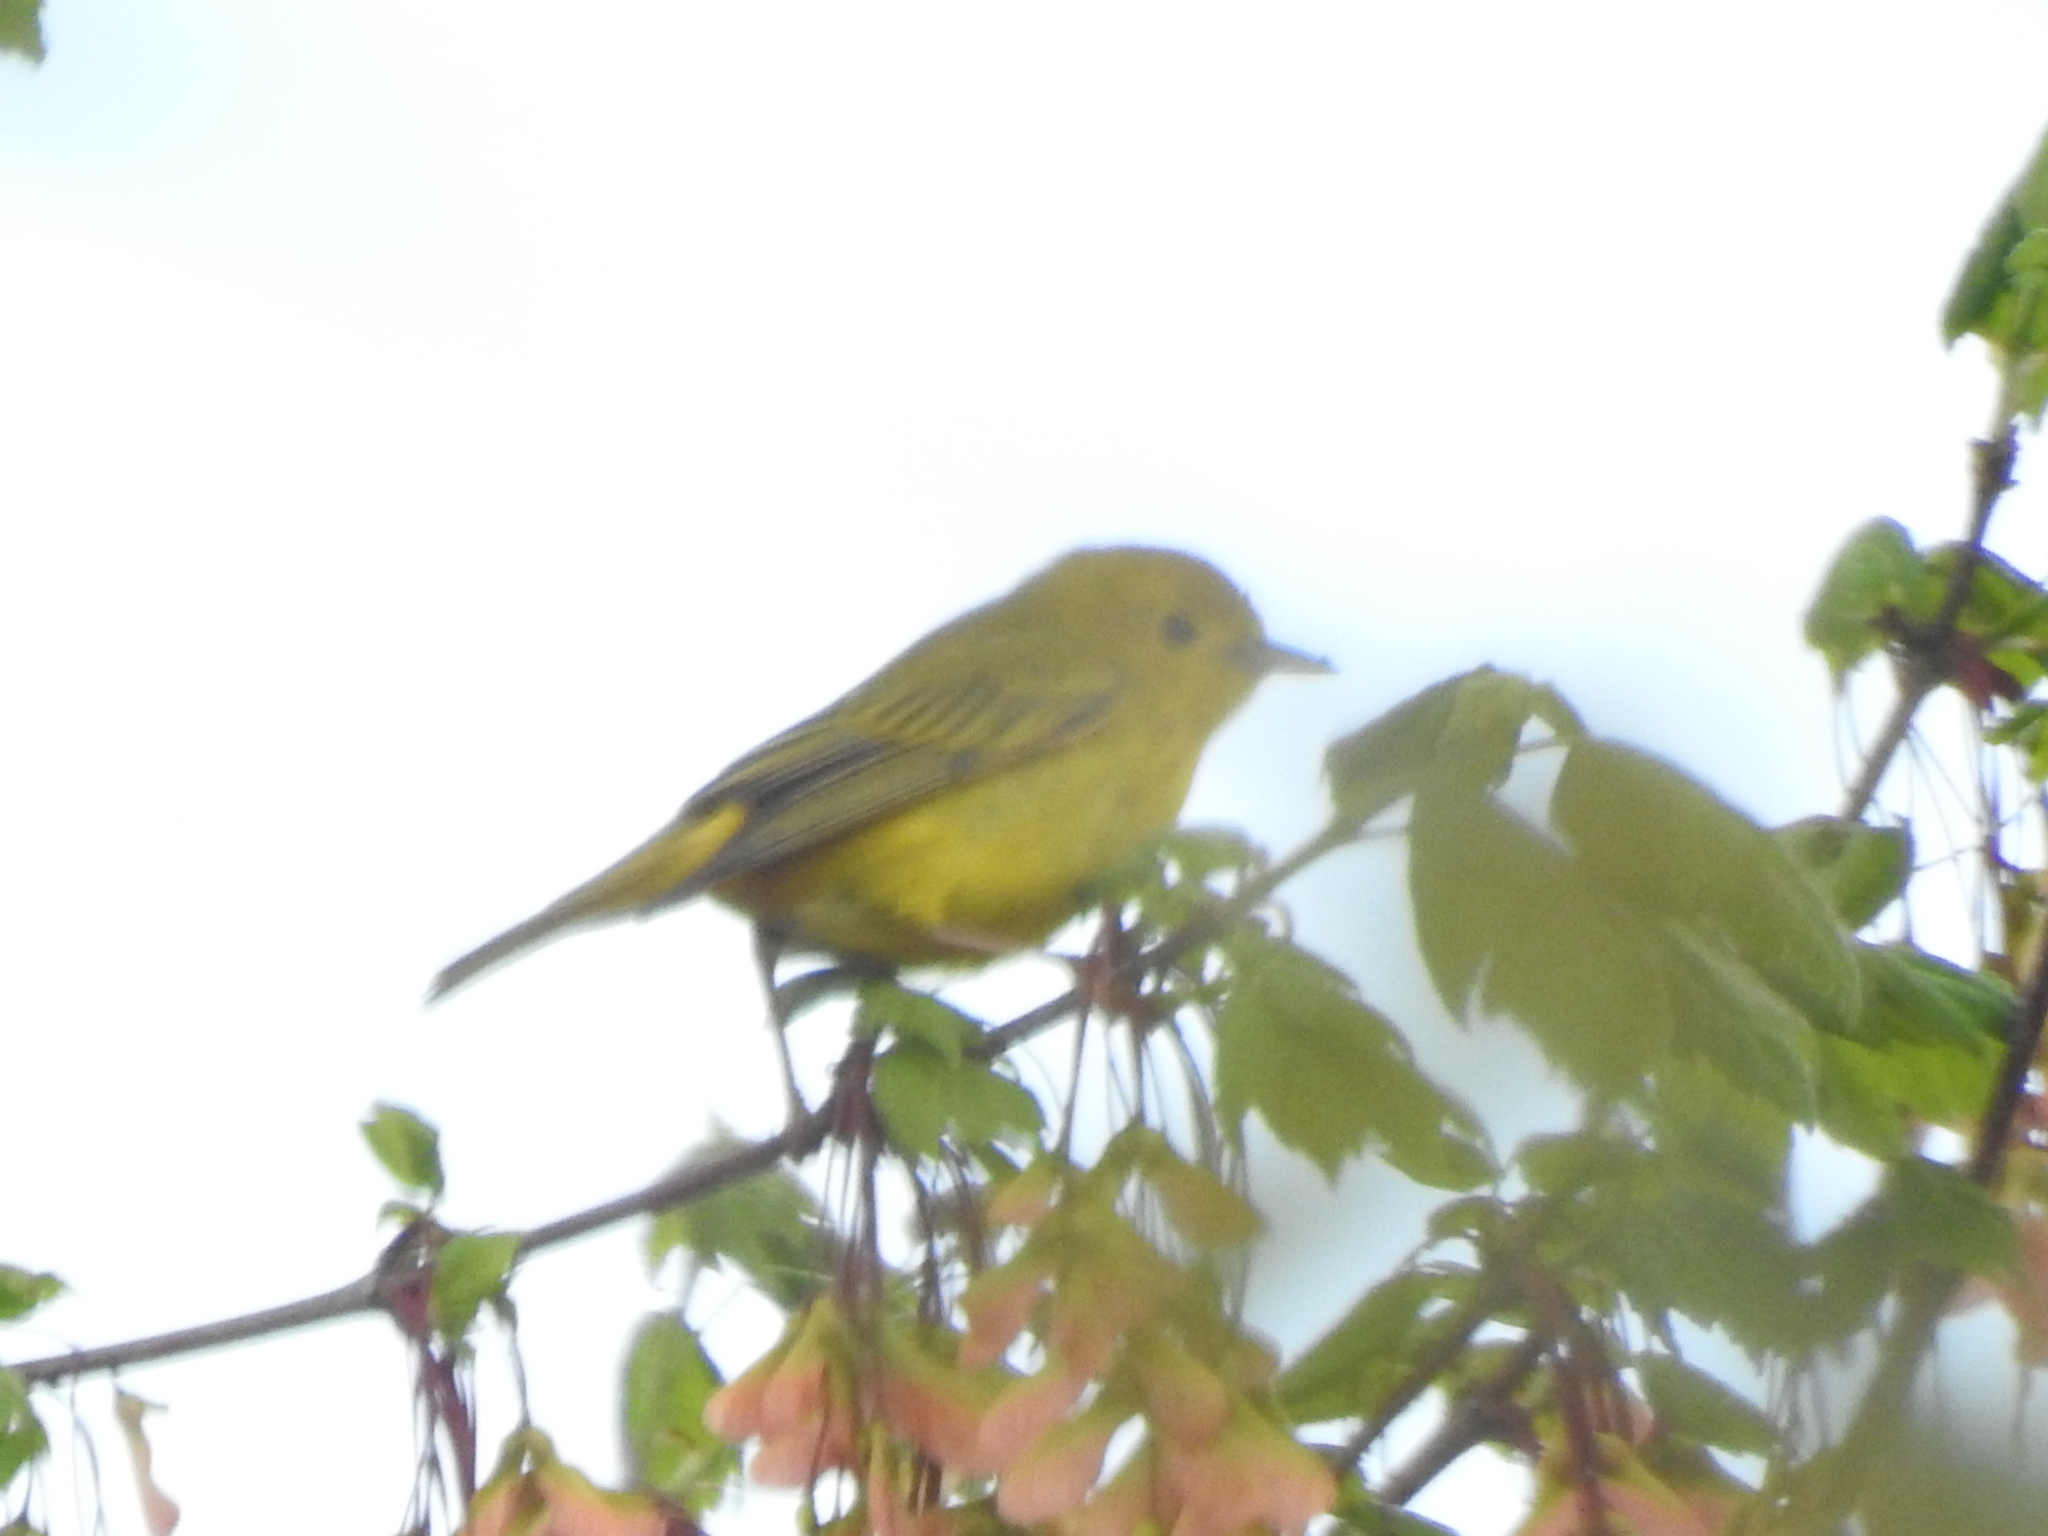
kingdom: Animalia
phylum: Chordata
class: Aves
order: Passeriformes
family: Parulidae
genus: Setophaga
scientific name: Setophaga petechia
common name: Yellow warbler
